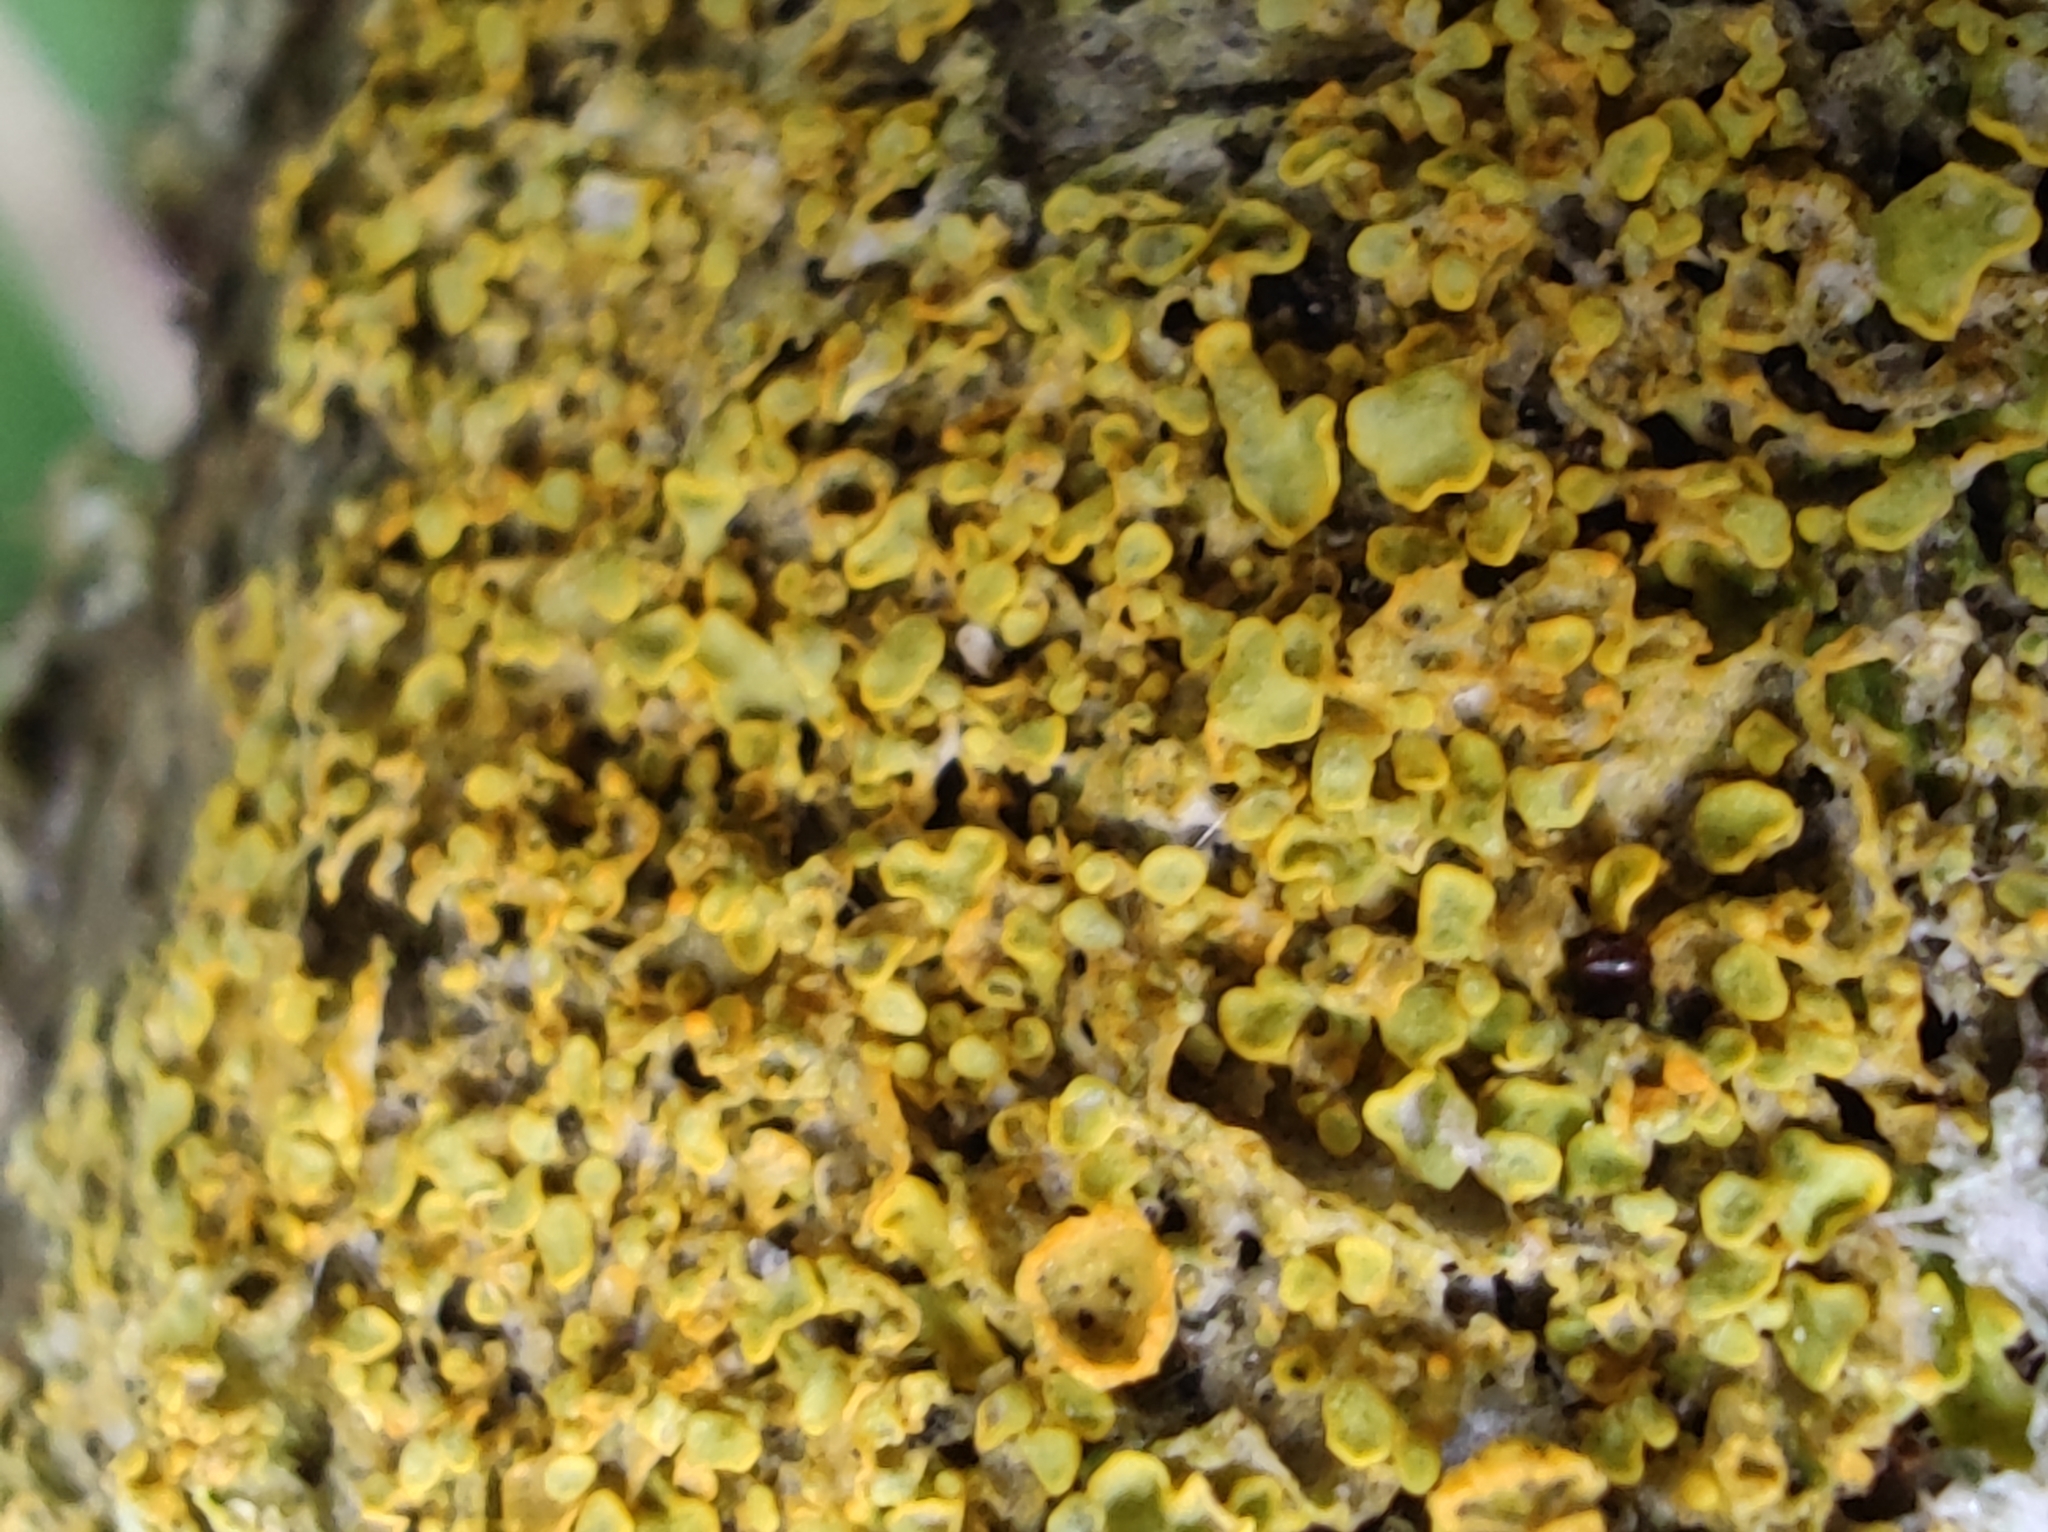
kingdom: Fungi
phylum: Ascomycota
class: Lecanoromycetes
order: Teloschistales
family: Teloschistaceae
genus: Xanthoria
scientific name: Xanthoria parietina
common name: Common orange lichen
